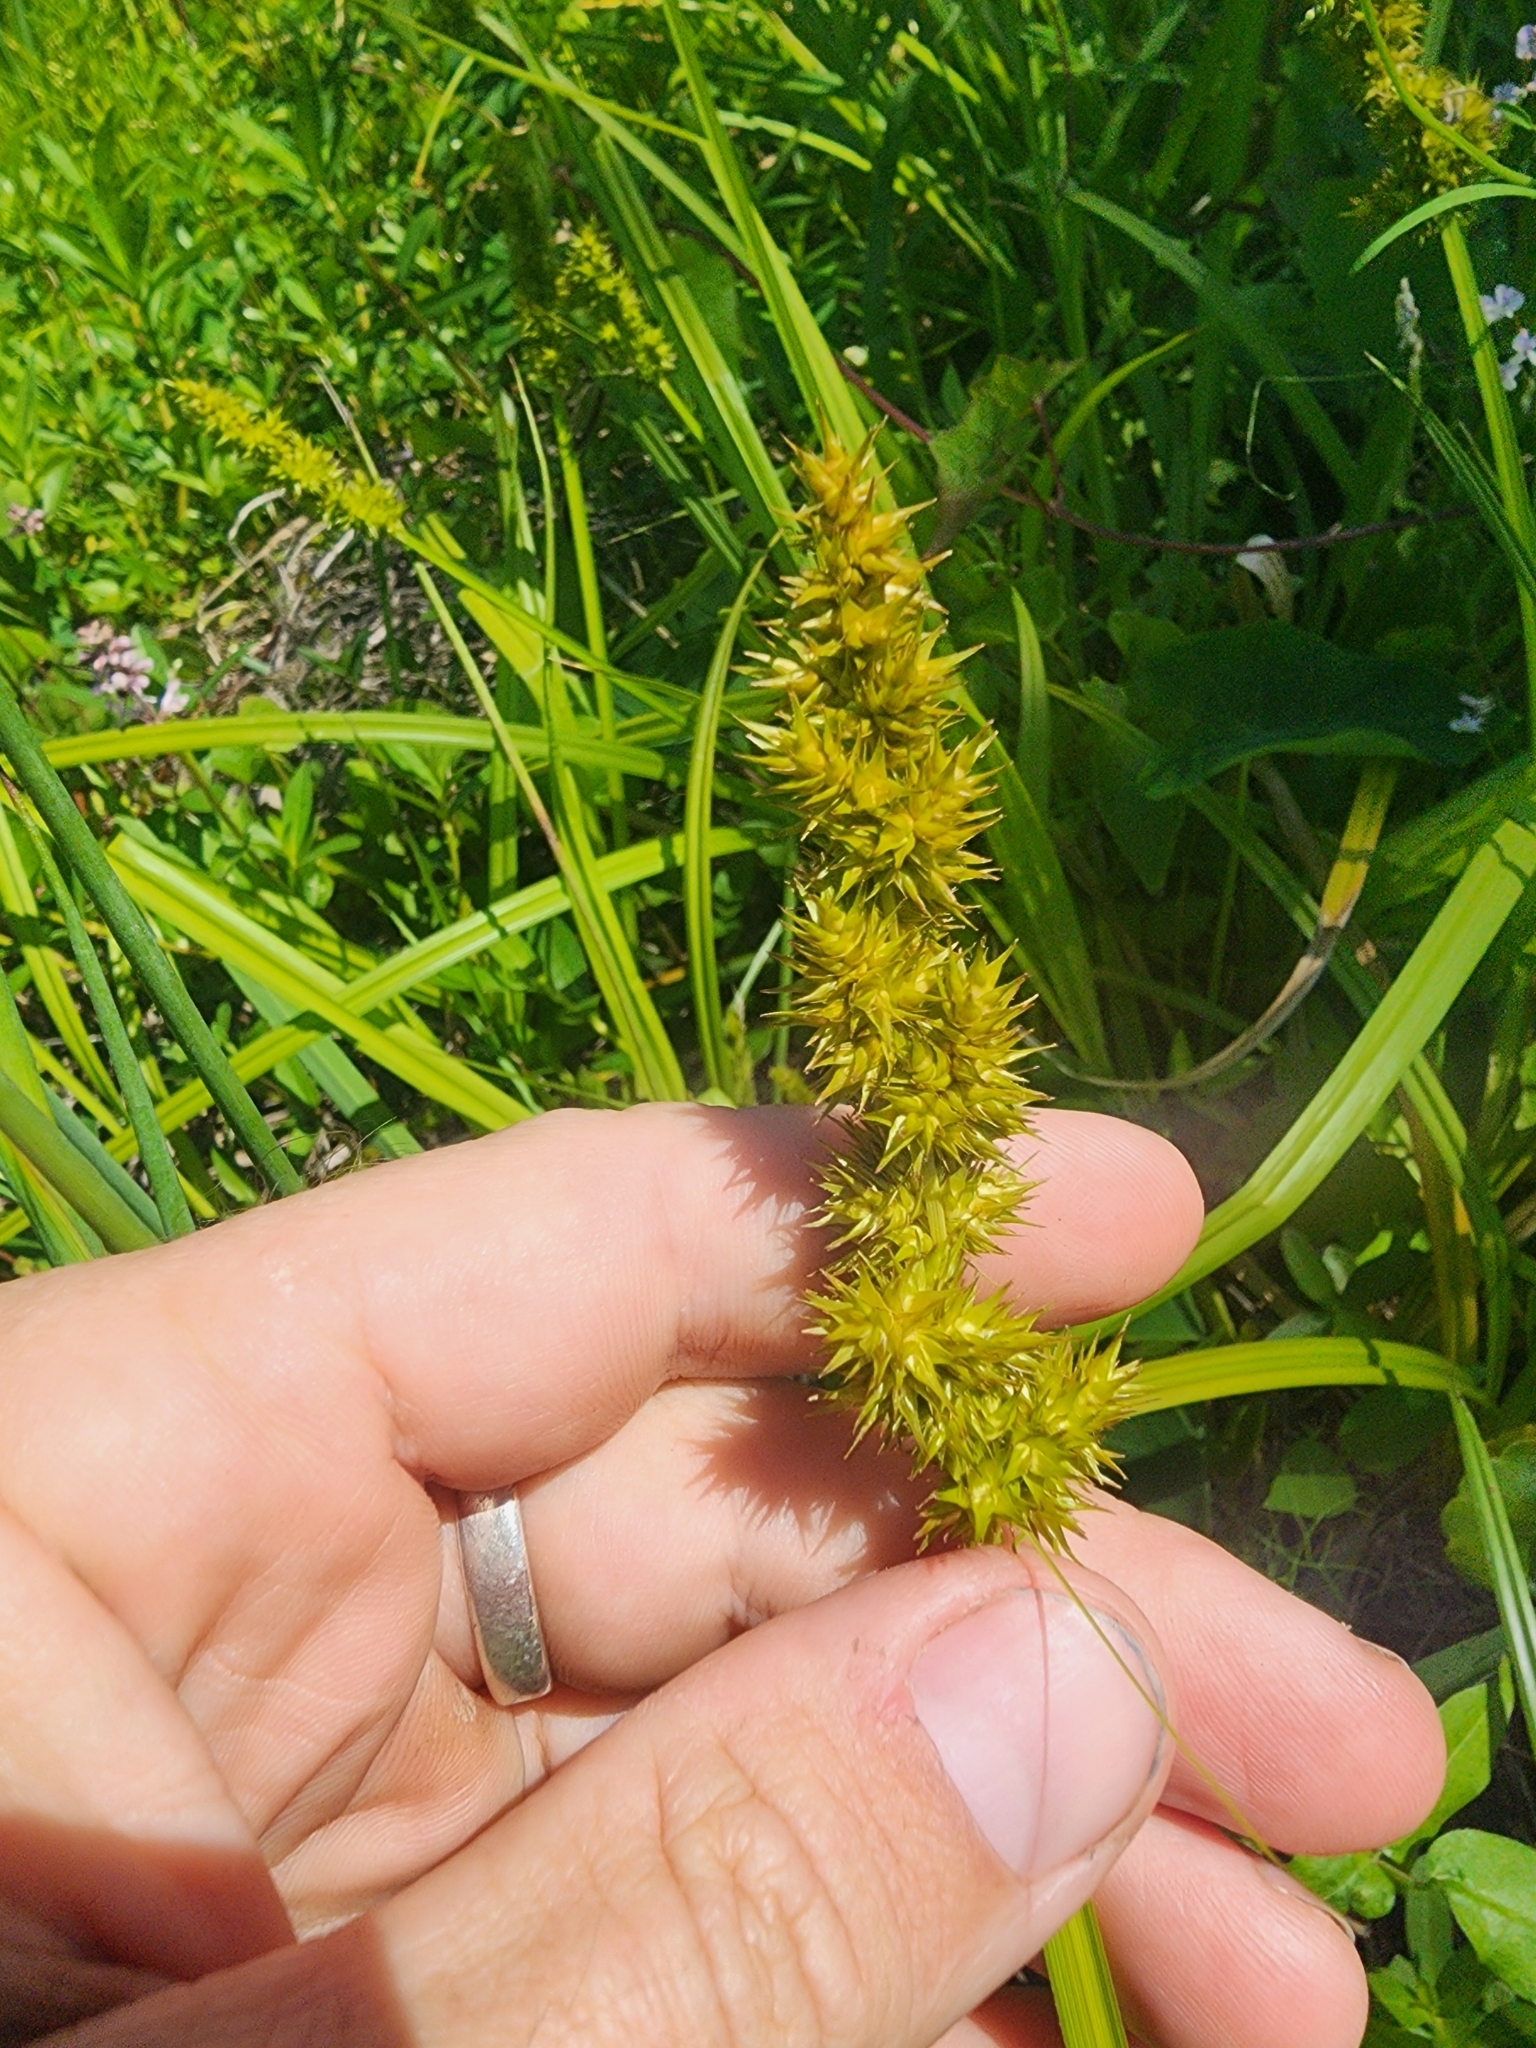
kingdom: Plantae
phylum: Tracheophyta
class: Liliopsida
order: Poales
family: Cyperaceae
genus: Carex
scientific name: Carex stipata
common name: Awl-fruited sedge
